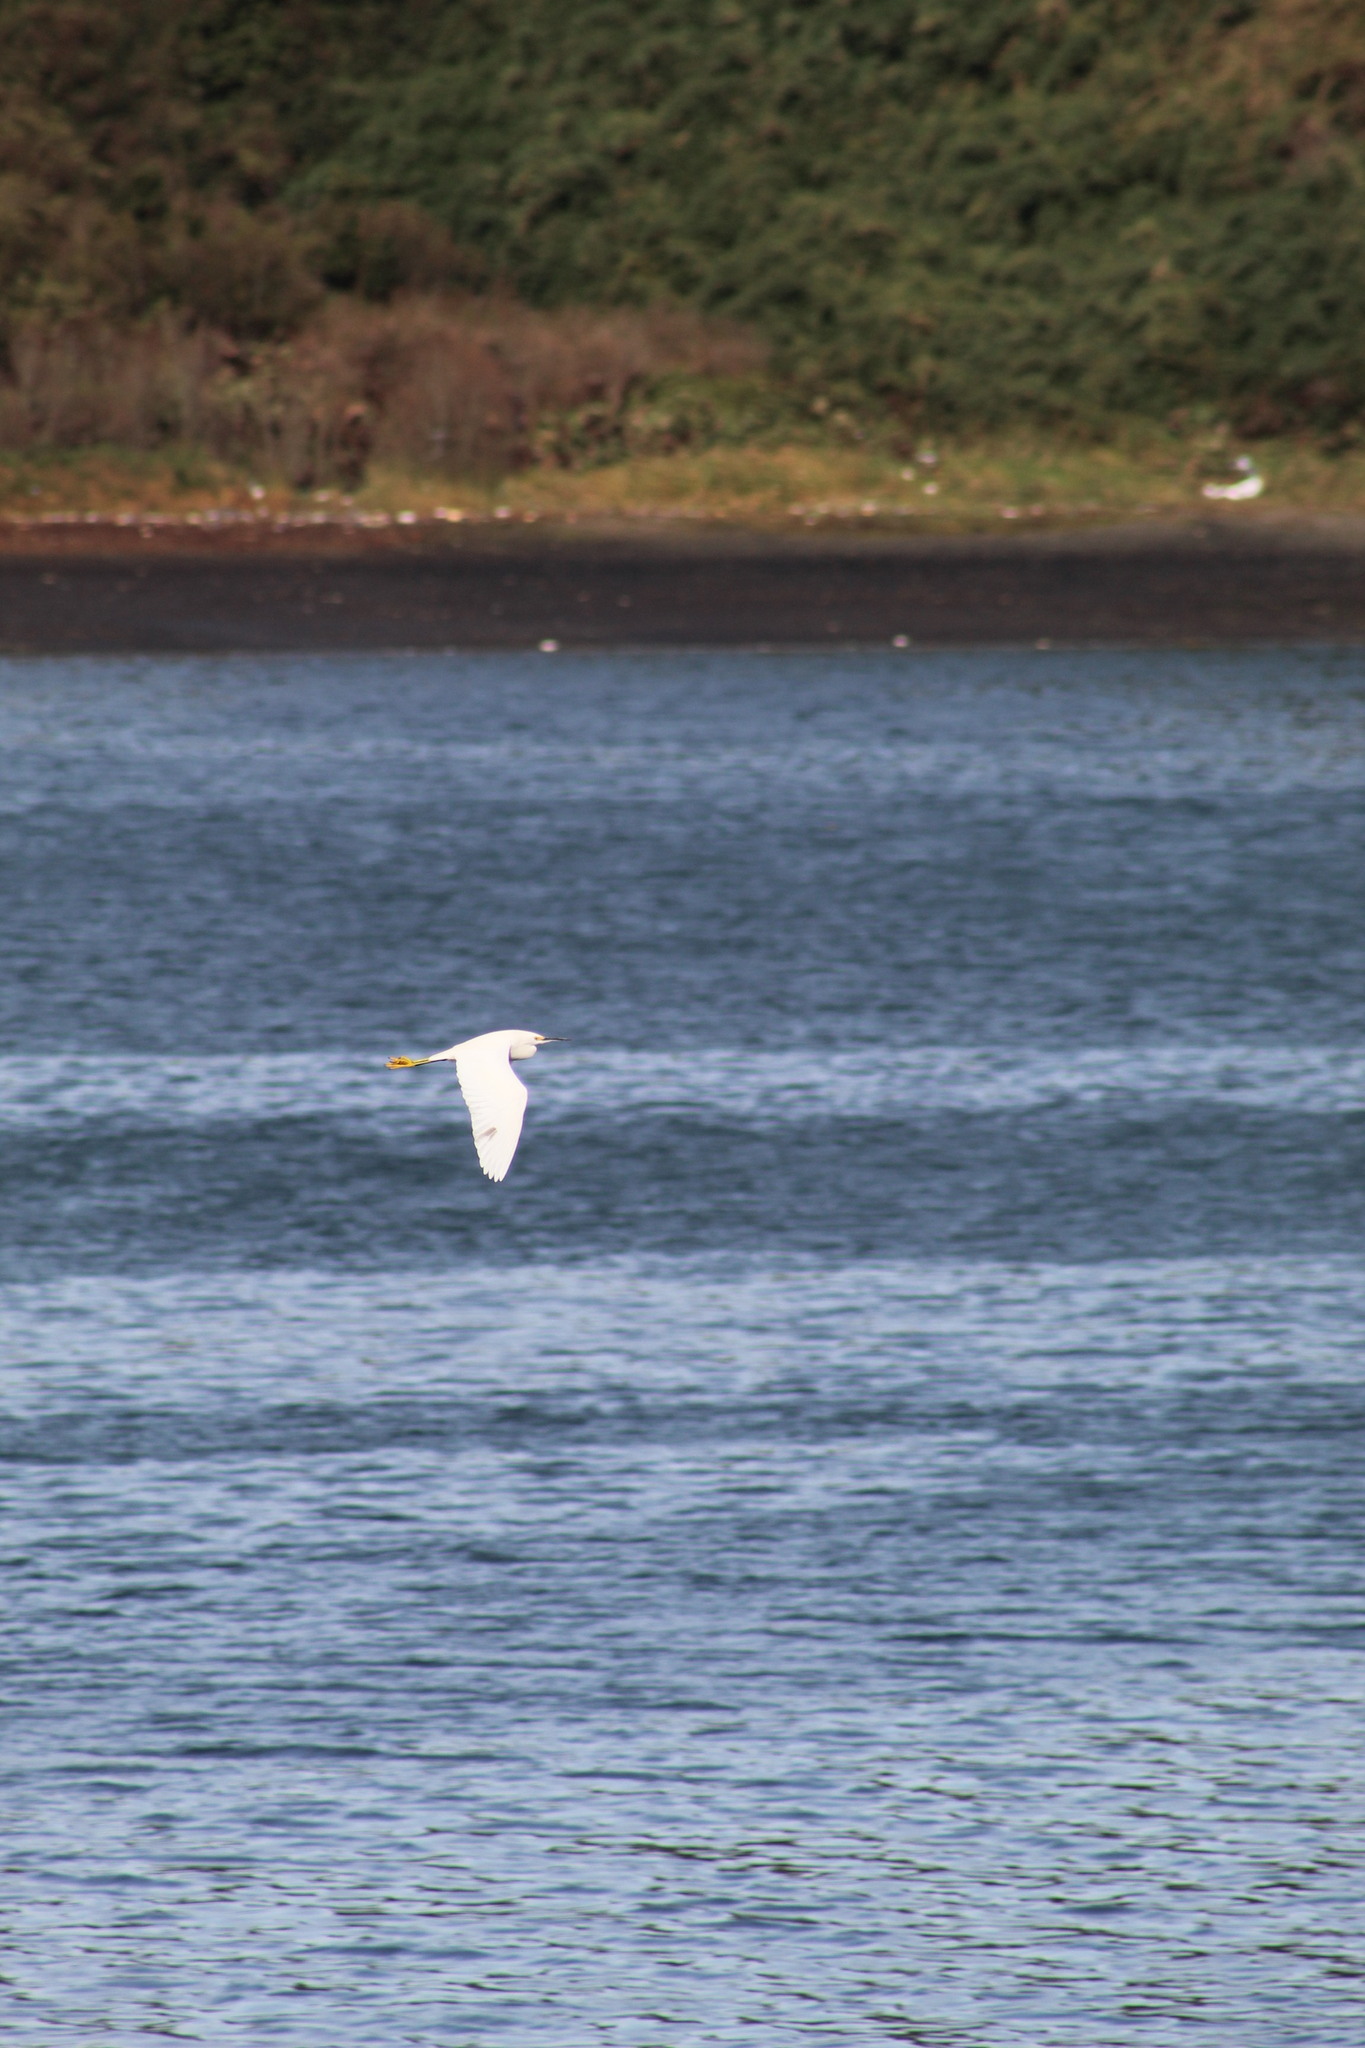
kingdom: Animalia
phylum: Chordata
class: Aves
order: Pelecaniformes
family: Ardeidae
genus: Egretta
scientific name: Egretta thula
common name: Snowy egret
